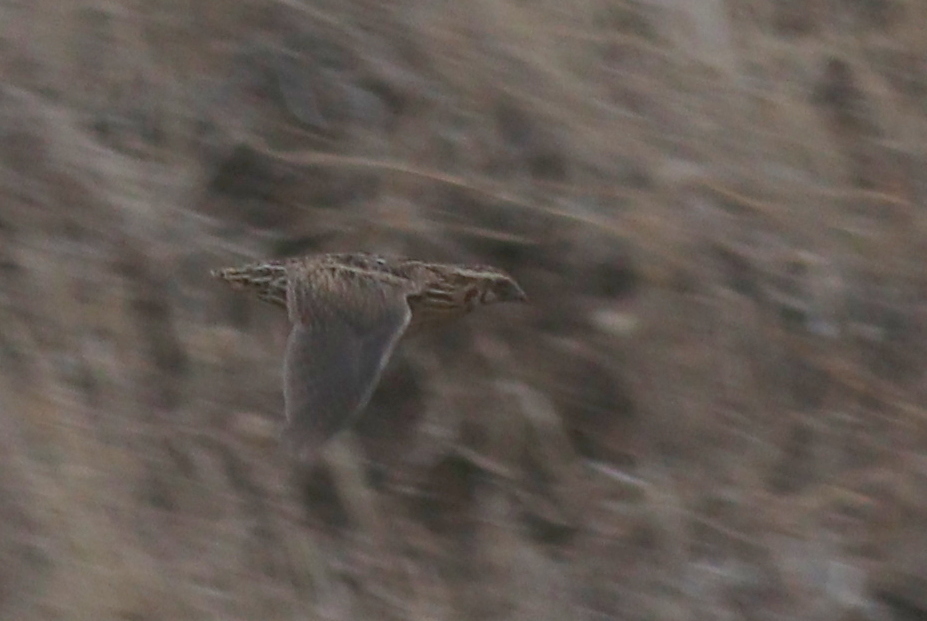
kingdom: Animalia
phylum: Chordata
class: Aves
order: Galliformes
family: Phasianidae
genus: Coturnix
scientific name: Coturnix coturnix
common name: Common quail
